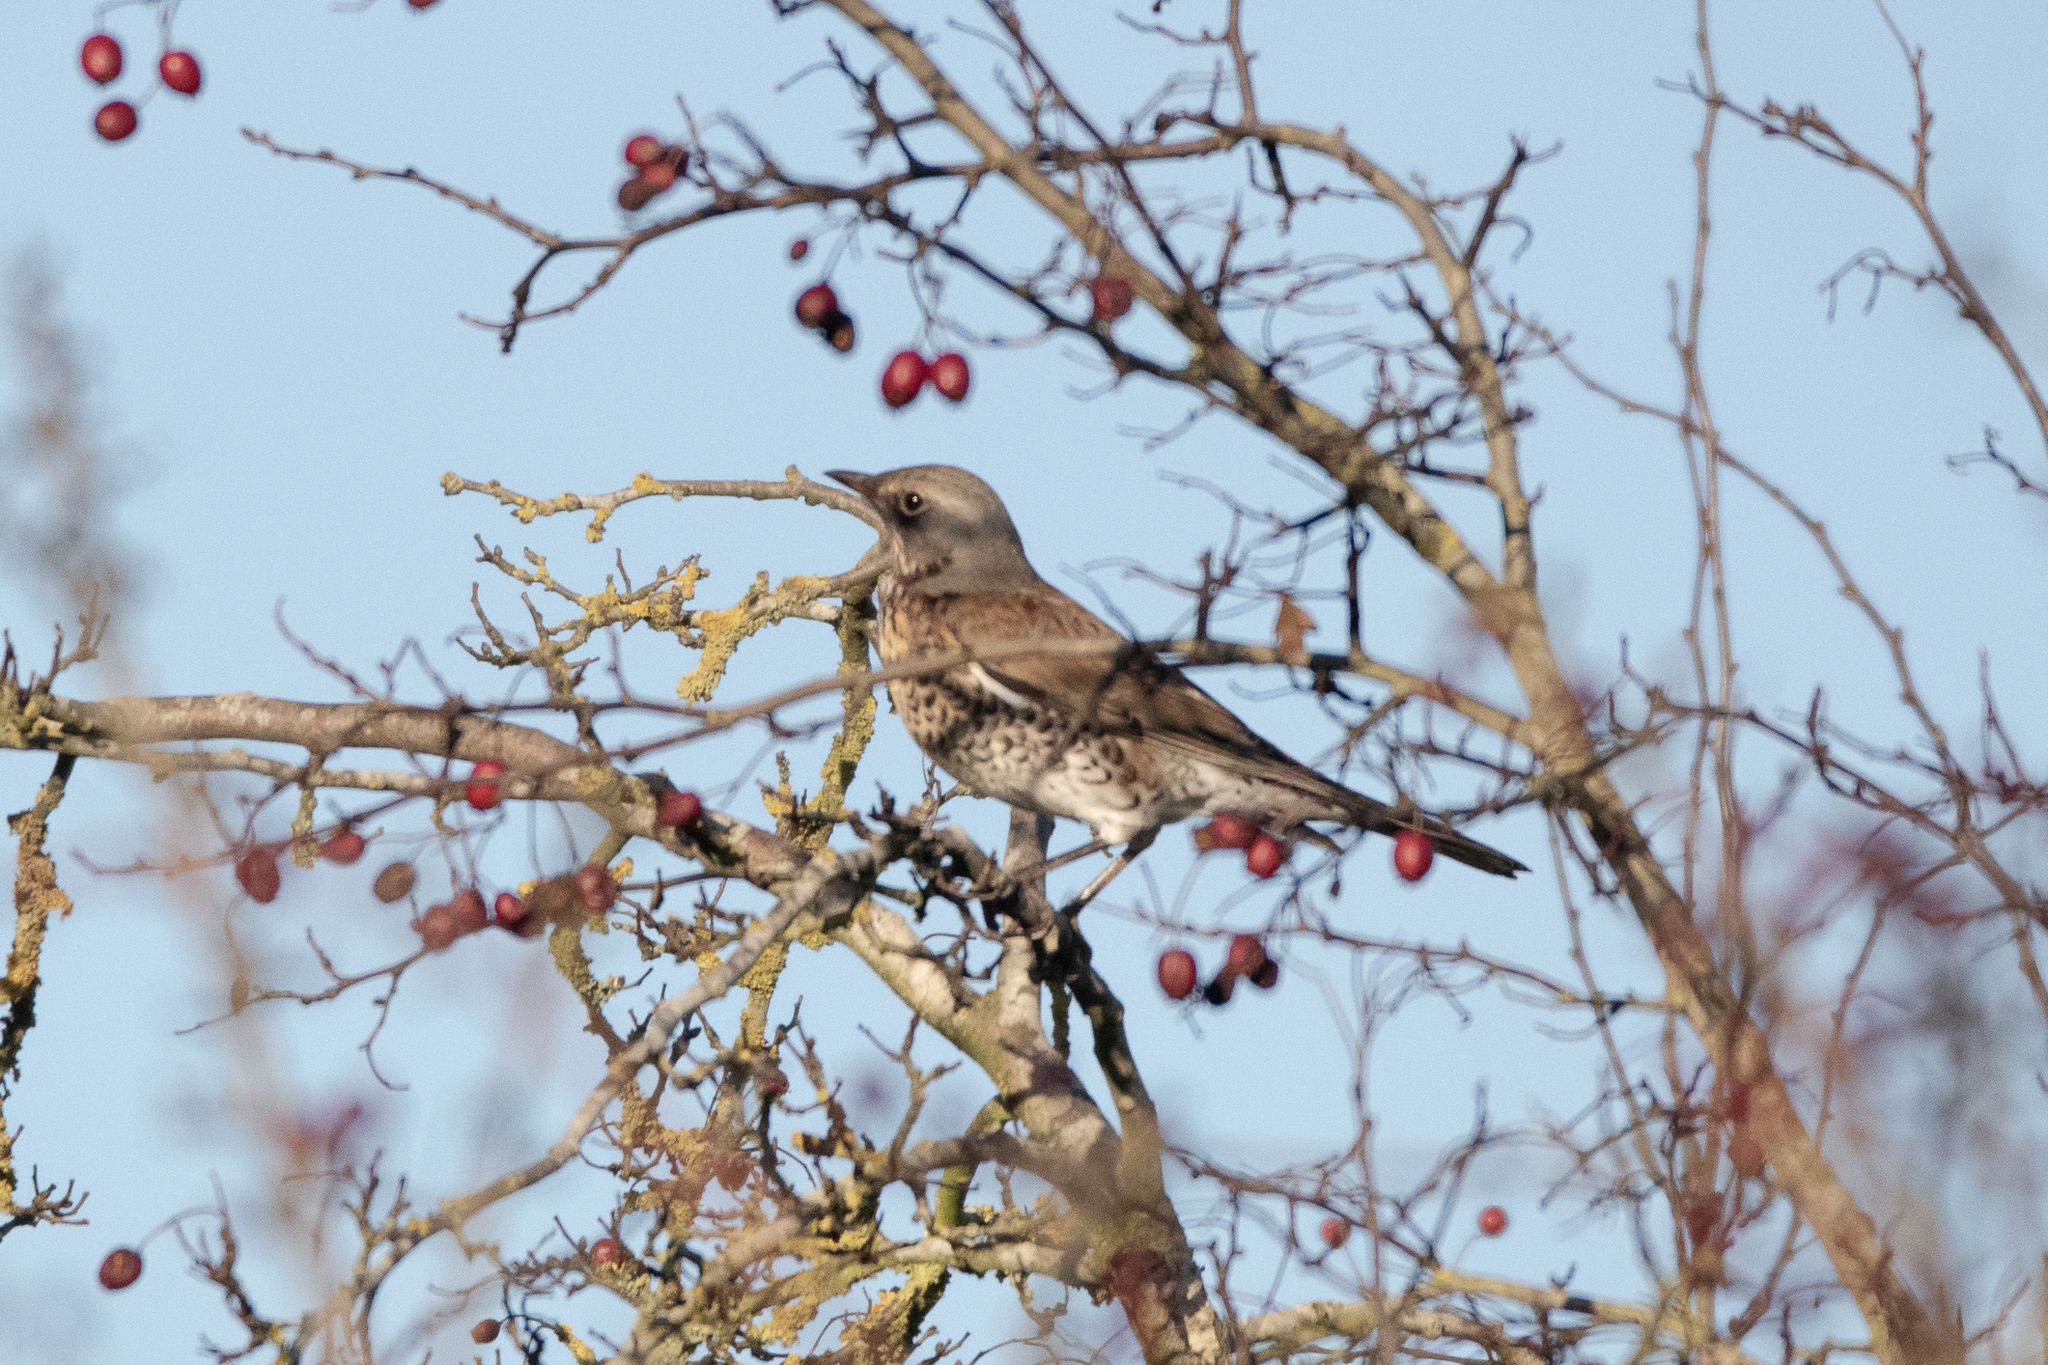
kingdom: Animalia
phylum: Chordata
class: Aves
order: Passeriformes
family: Turdidae
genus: Turdus
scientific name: Turdus pilaris
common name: Fieldfare
